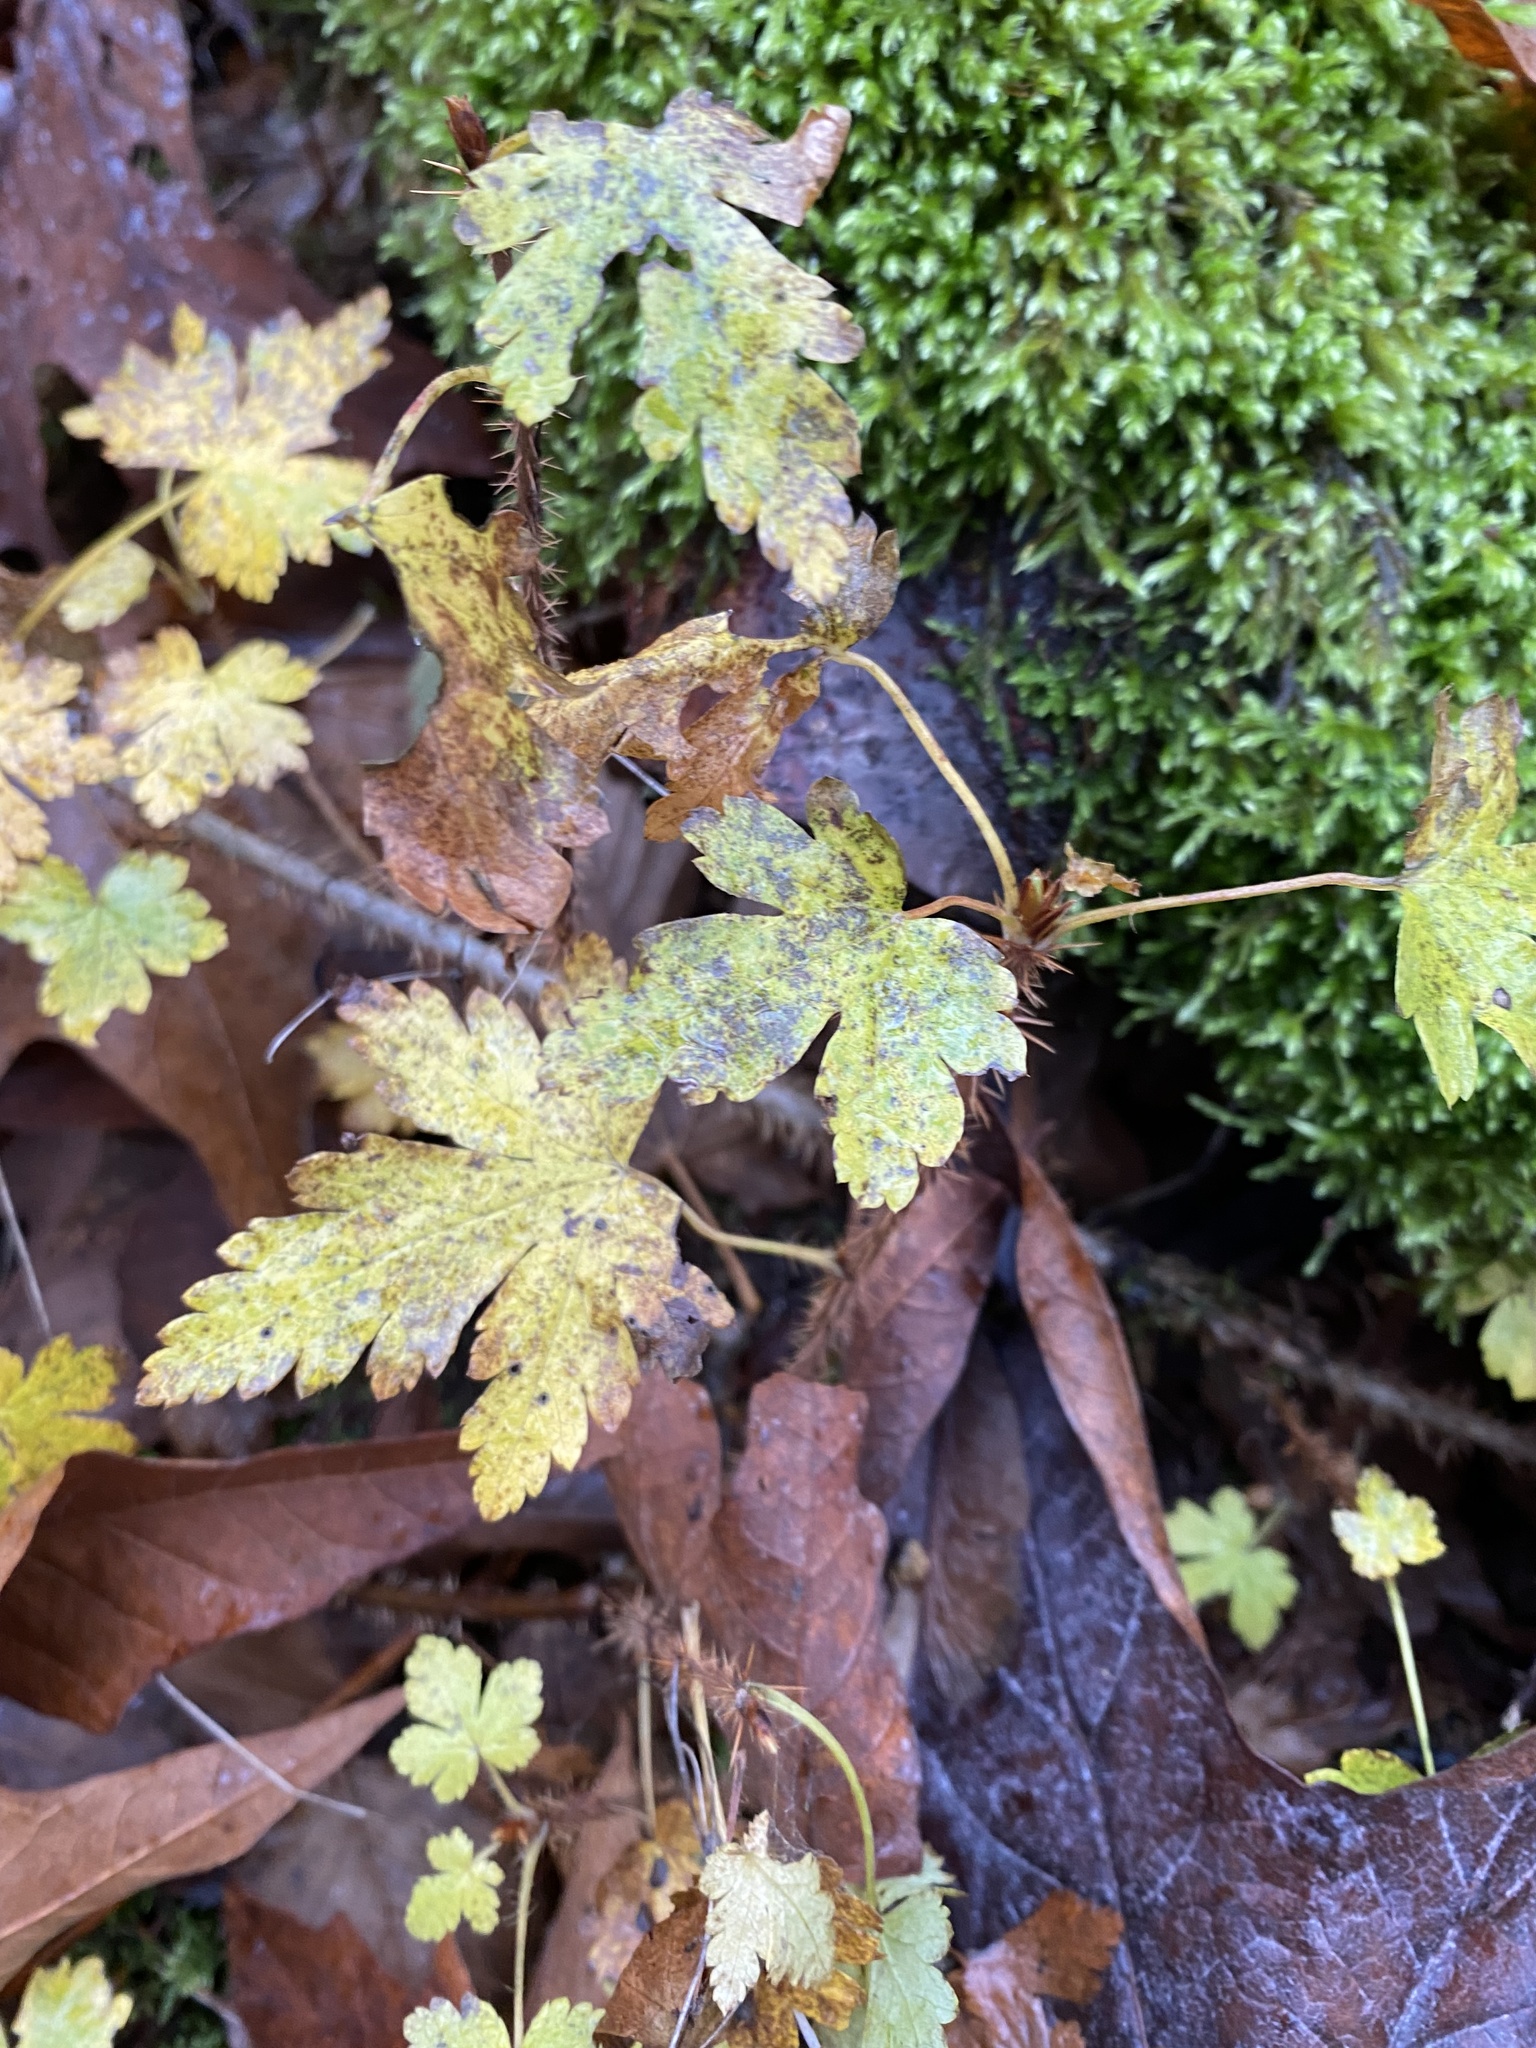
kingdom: Plantae
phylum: Tracheophyta
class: Magnoliopsida
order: Saxifragales
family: Grossulariaceae
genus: Ribes
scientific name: Ribes lacustre
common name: Black gooseberry
